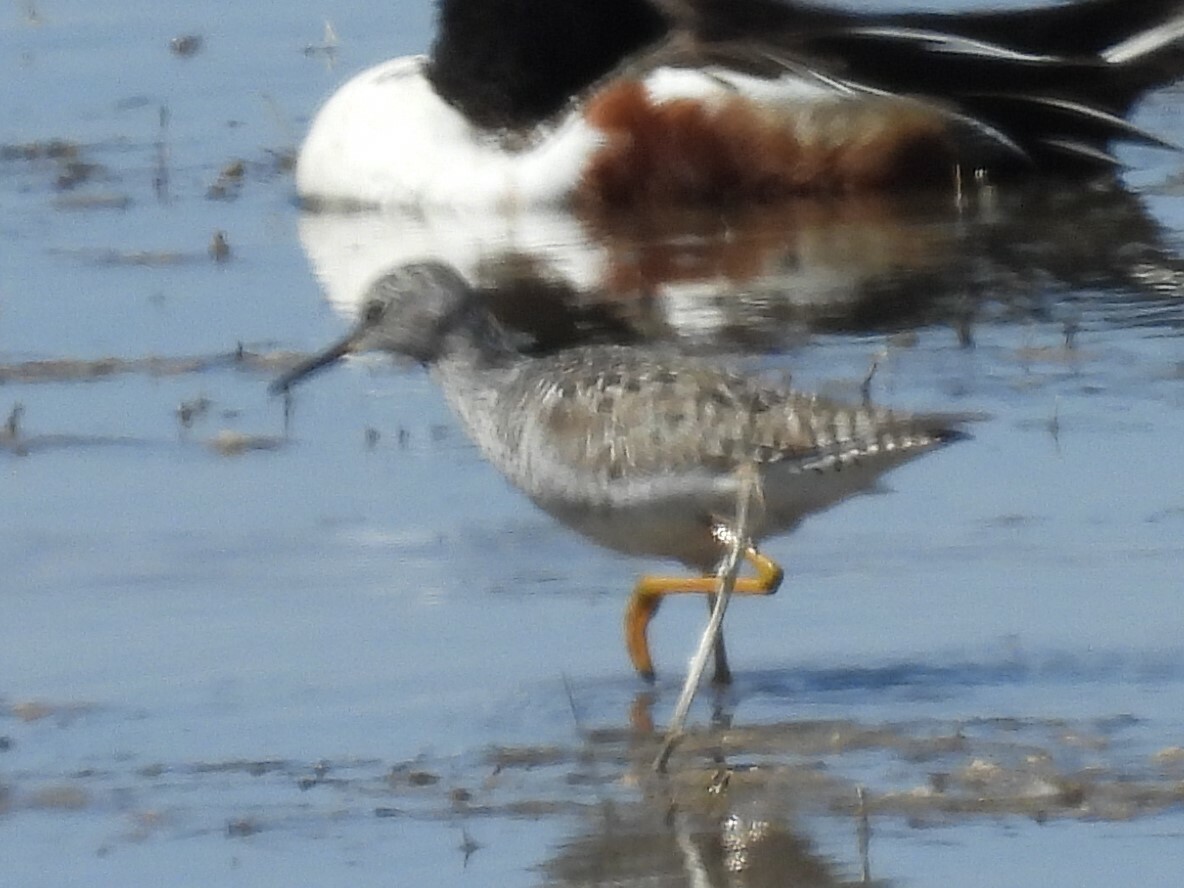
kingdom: Animalia
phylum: Chordata
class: Aves
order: Charadriiformes
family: Scolopacidae
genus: Tringa
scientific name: Tringa flavipes
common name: Lesser yellowlegs
